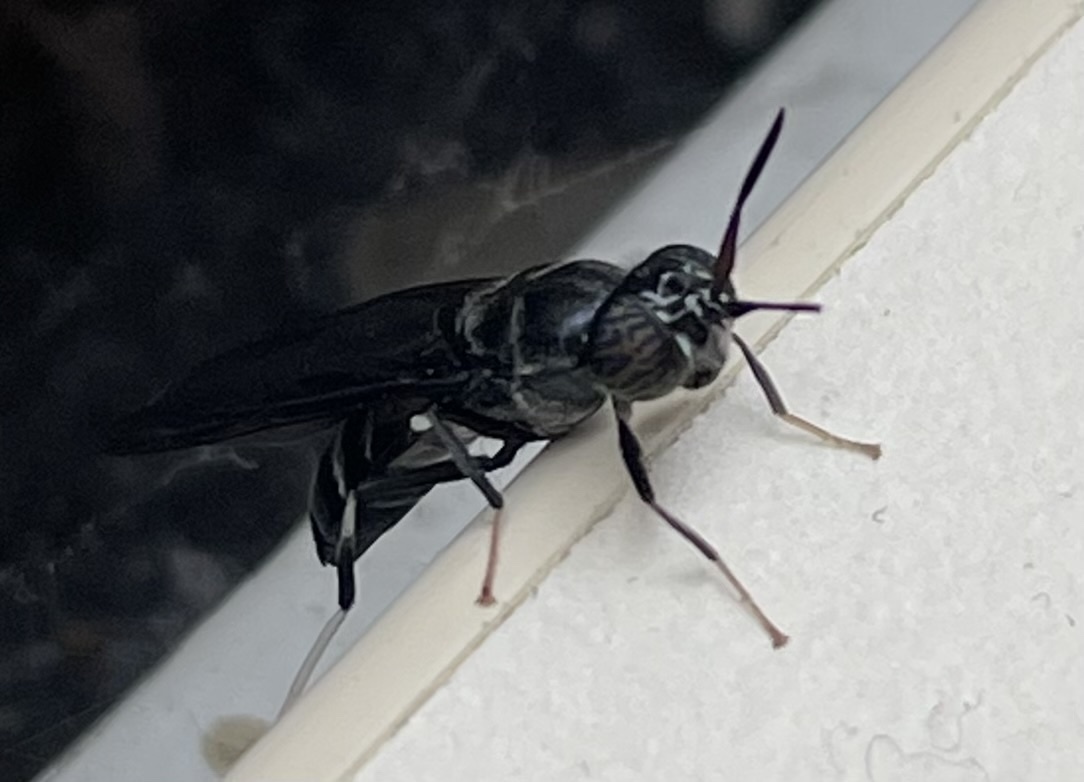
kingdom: Animalia
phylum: Arthropoda
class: Insecta
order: Diptera
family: Stratiomyidae
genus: Hermetia
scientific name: Hermetia illucens
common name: Black soldier fly
